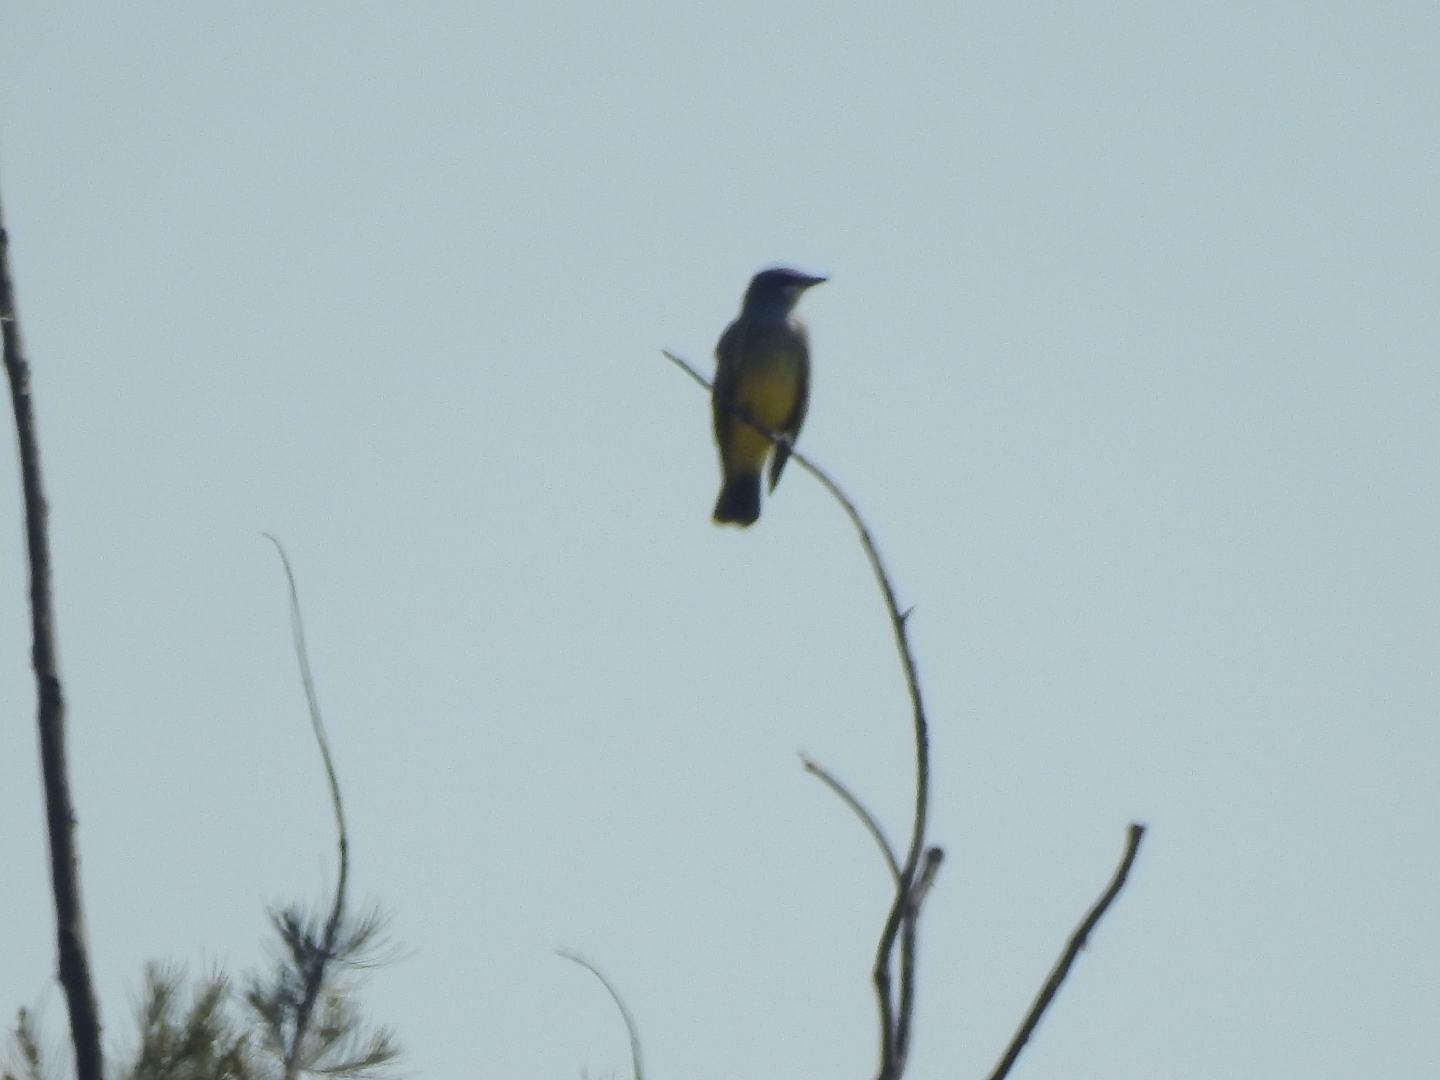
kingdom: Animalia
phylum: Chordata
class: Aves
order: Passeriformes
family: Tyrannidae
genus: Tyrannus
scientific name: Tyrannus vociferans
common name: Cassin's kingbird
